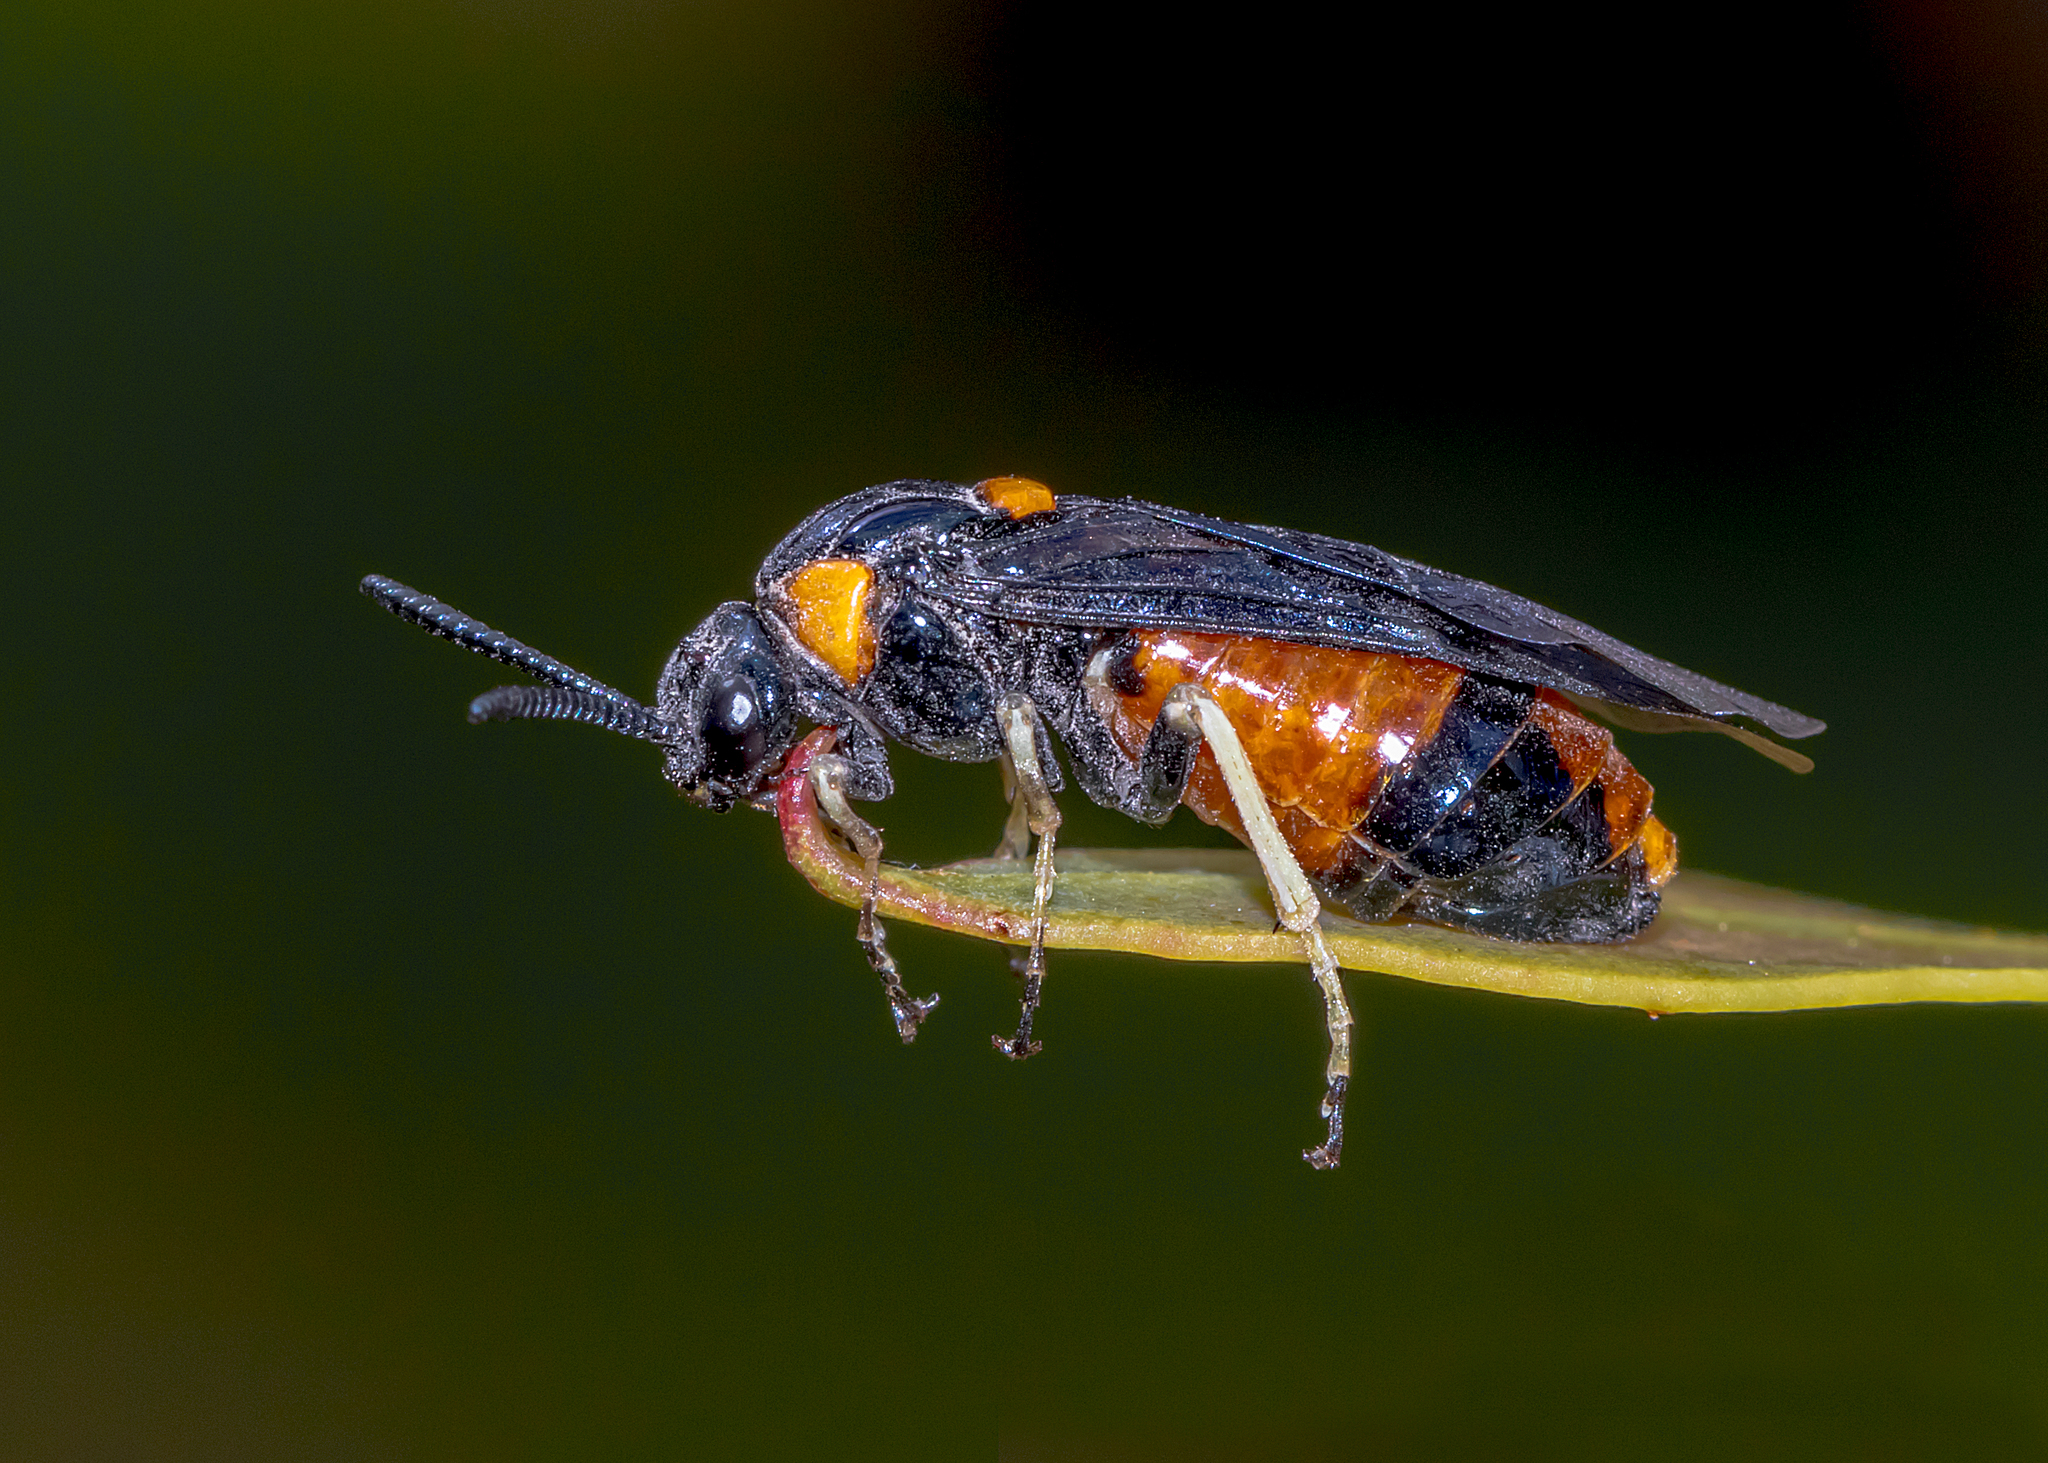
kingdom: Animalia
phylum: Arthropoda
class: Insecta
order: Hymenoptera
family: Pergidae
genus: Lophyrotoma
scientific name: Lophyrotoma interrupta
